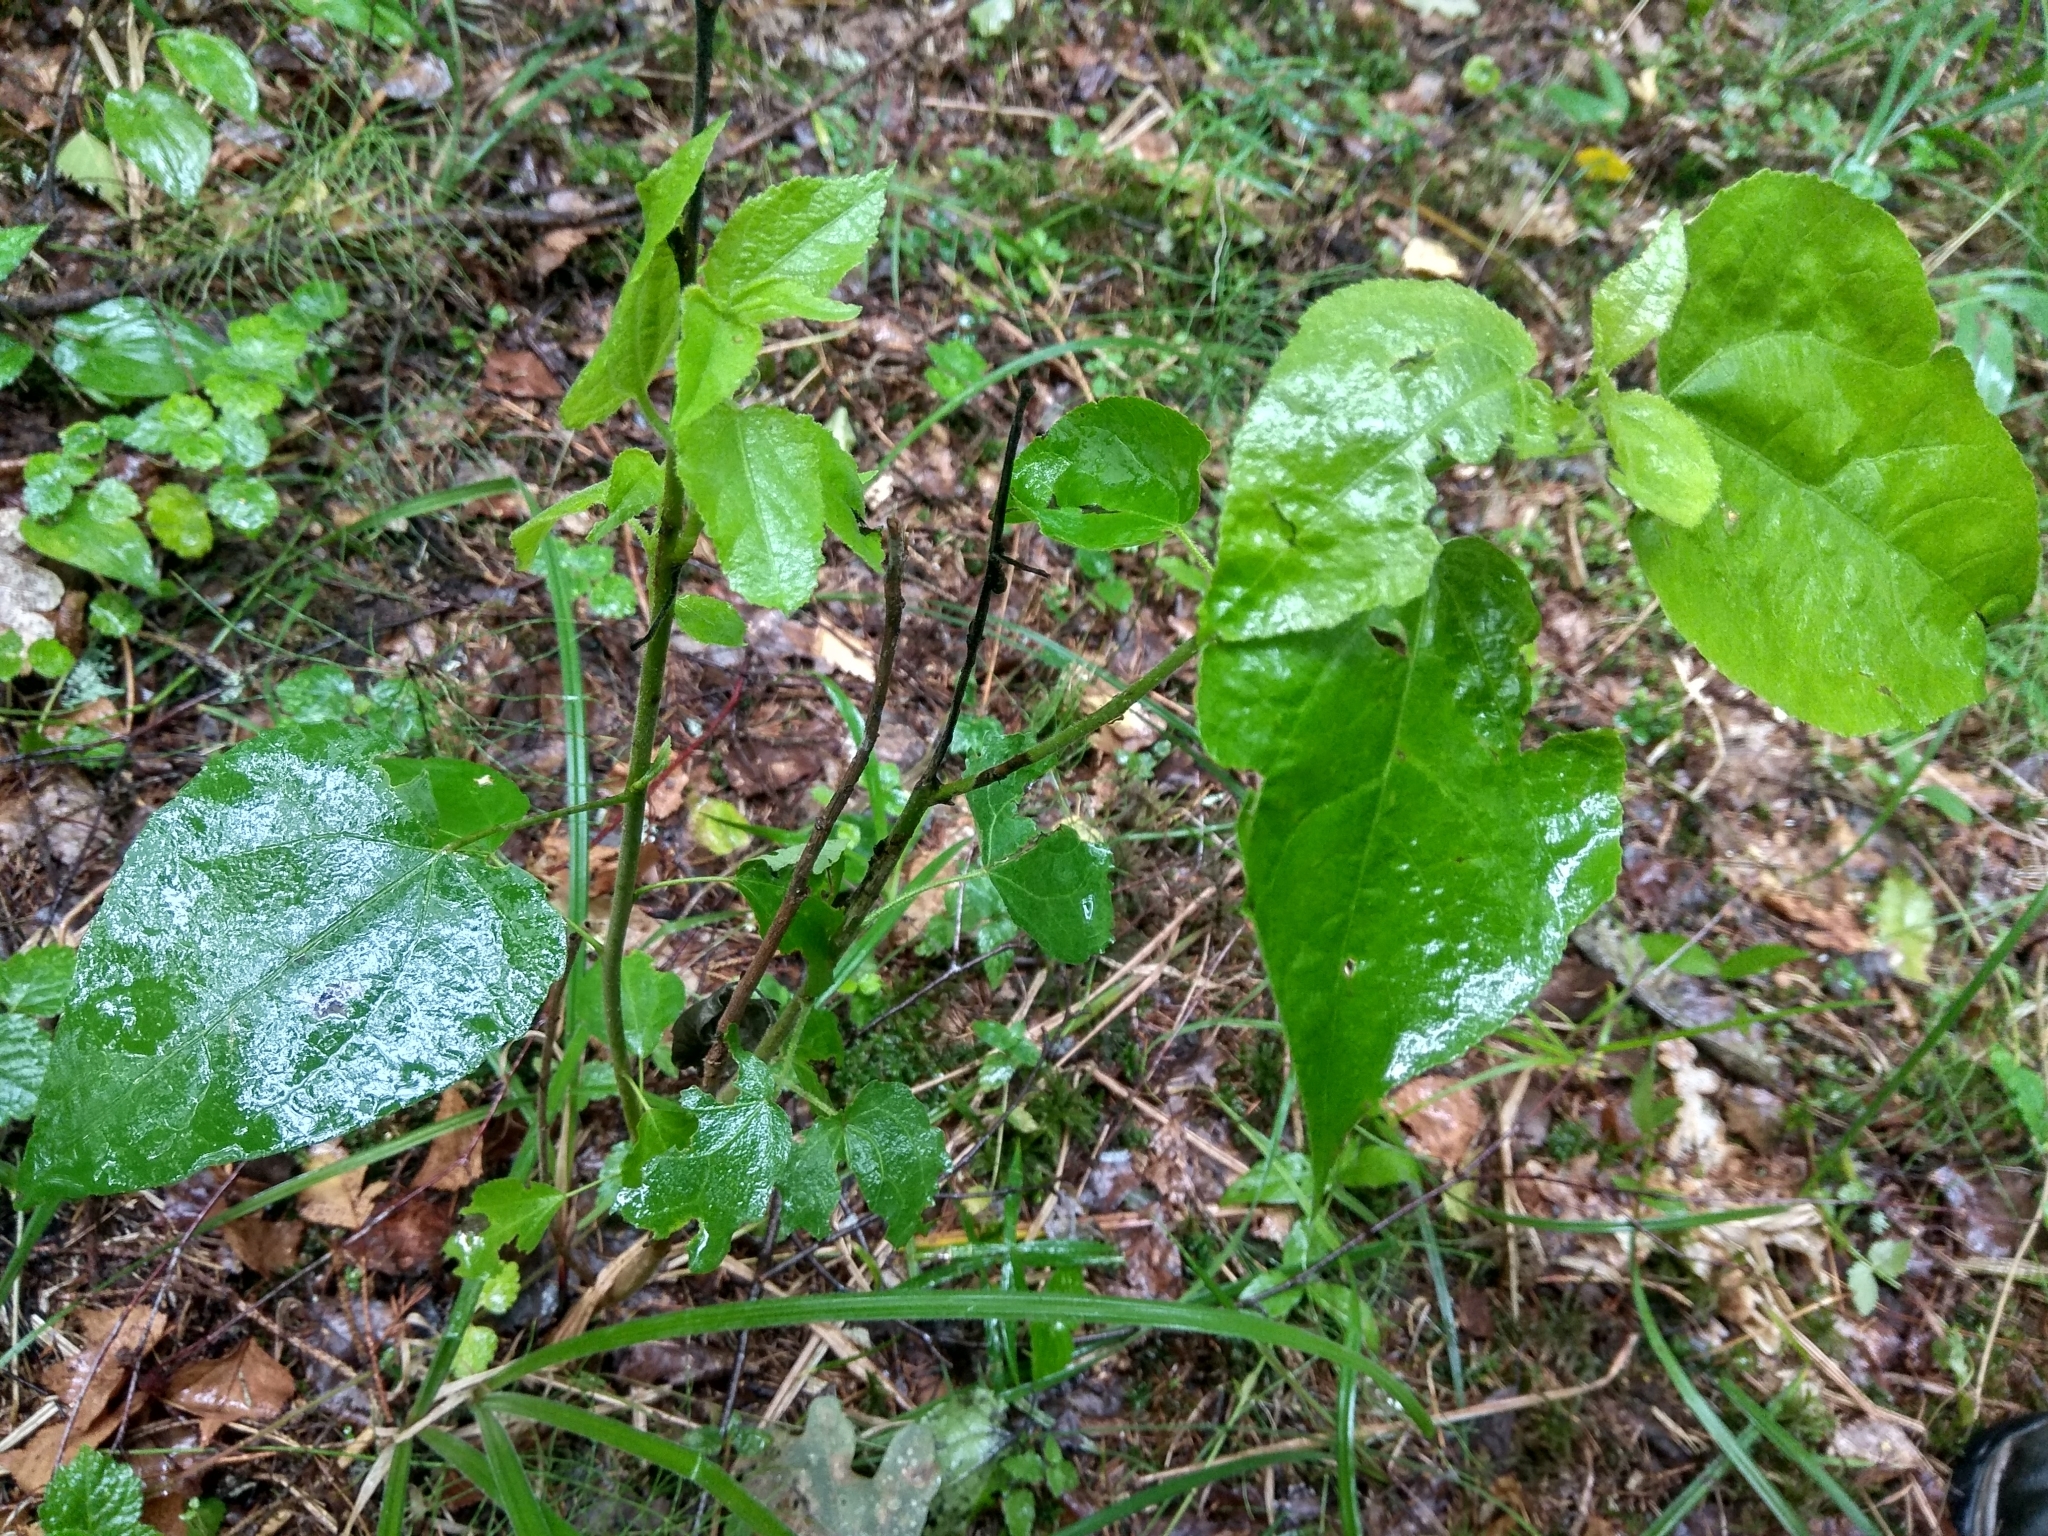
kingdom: Plantae
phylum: Tracheophyta
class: Magnoliopsida
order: Malpighiales
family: Salicaceae
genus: Populus
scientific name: Populus tremula
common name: European aspen
